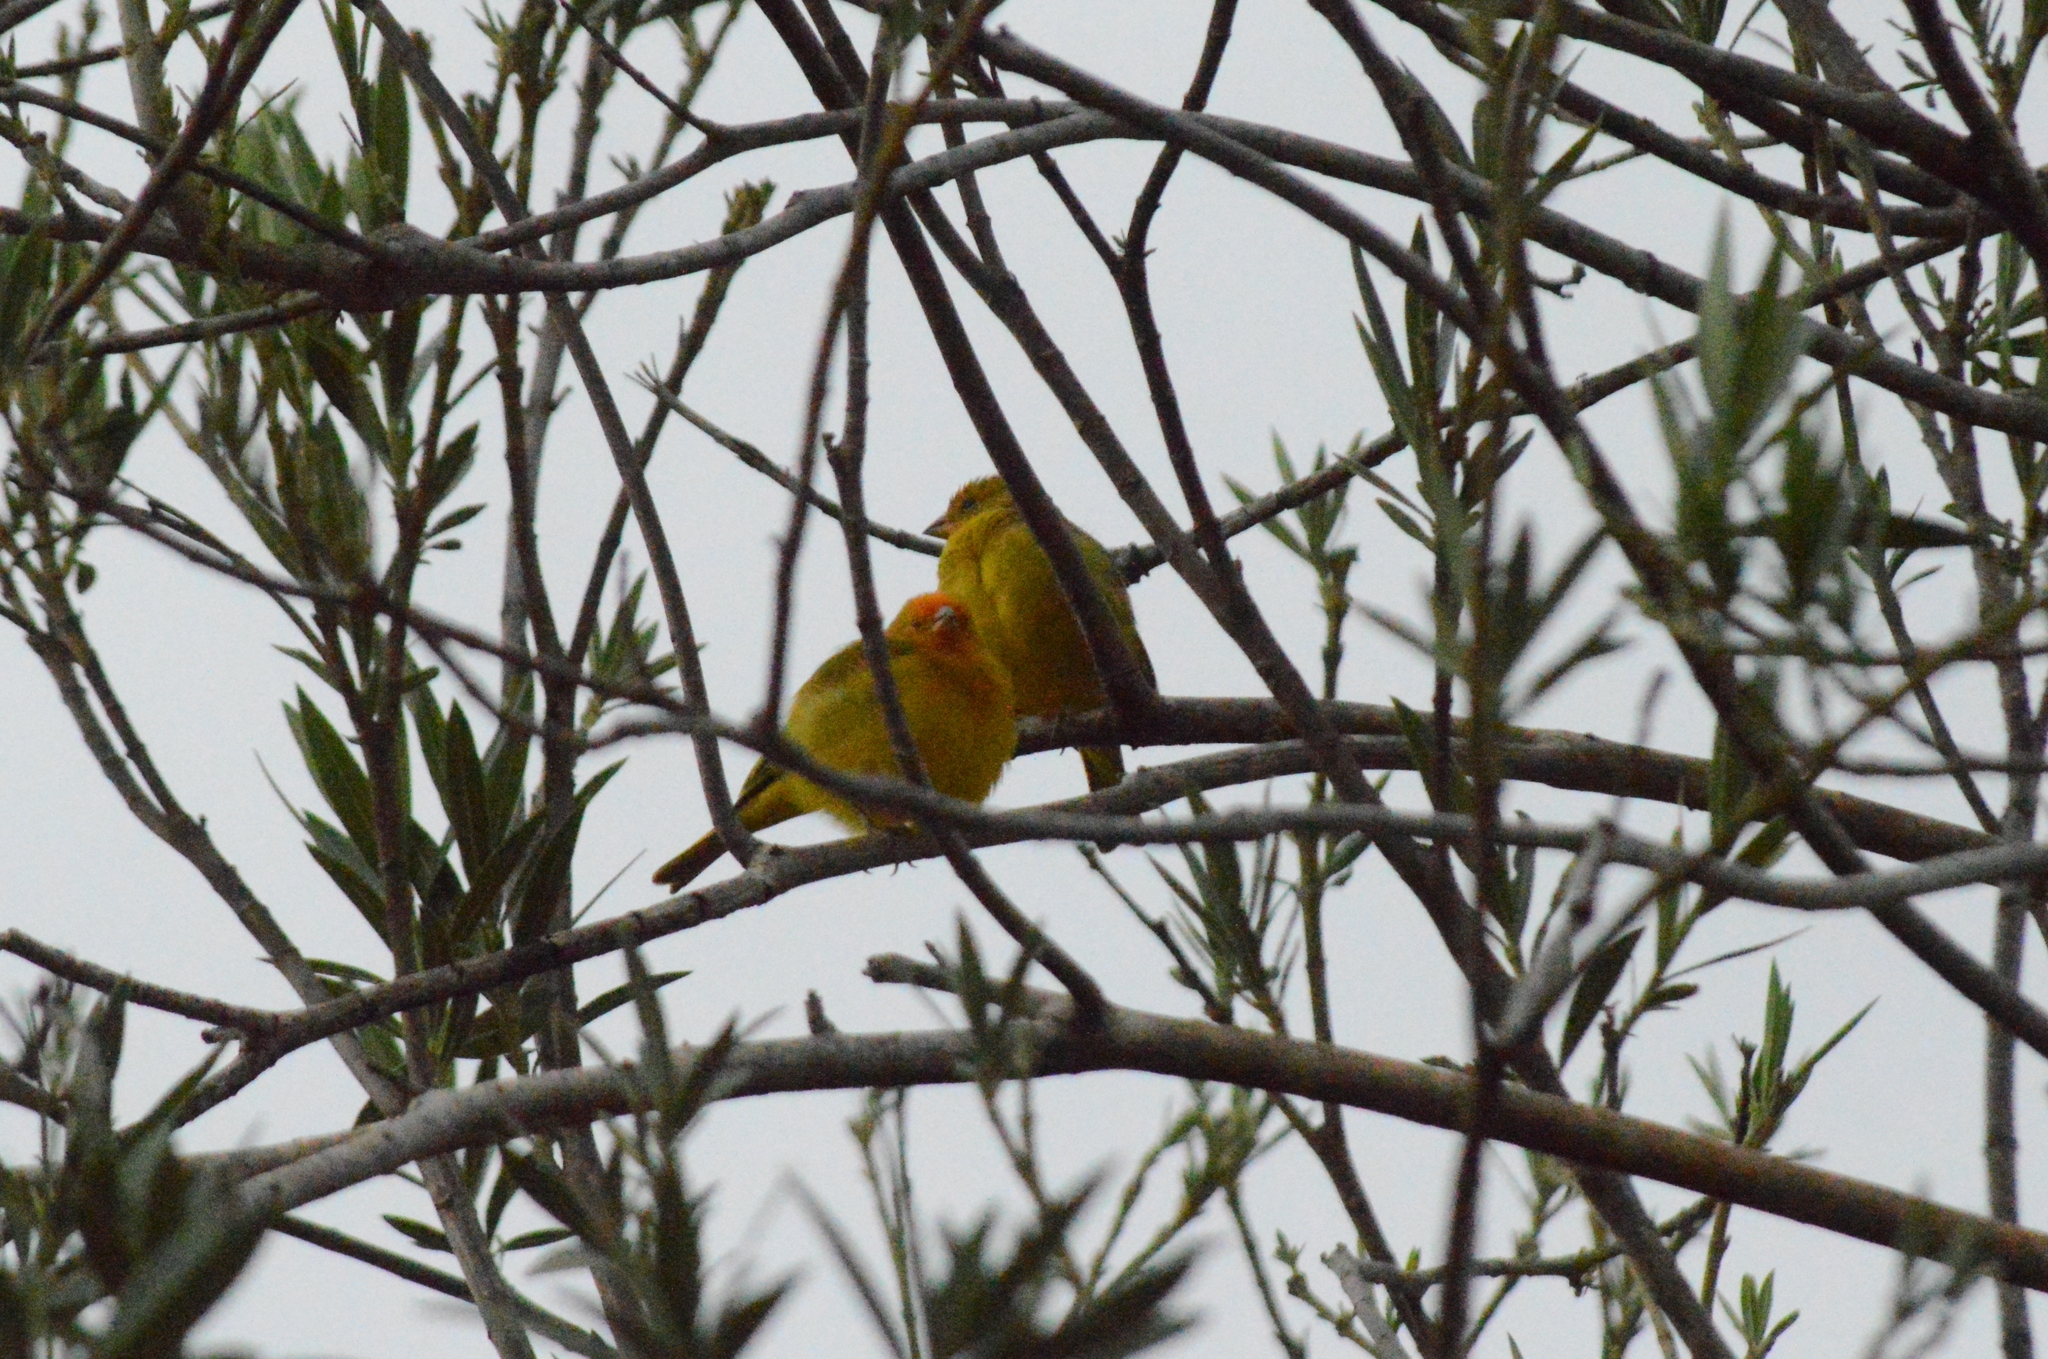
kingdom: Animalia
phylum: Chordata
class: Aves
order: Passeriformes
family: Thraupidae
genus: Sicalis
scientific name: Sicalis flaveola
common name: Saffron finch
